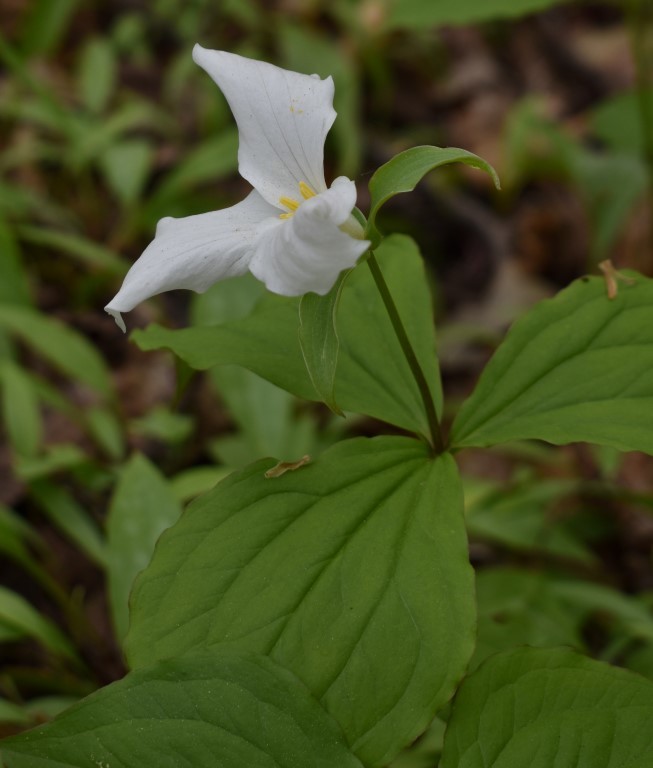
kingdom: Plantae
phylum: Tracheophyta
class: Liliopsida
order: Liliales
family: Melanthiaceae
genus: Trillium
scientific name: Trillium grandiflorum
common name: Great white trillium
